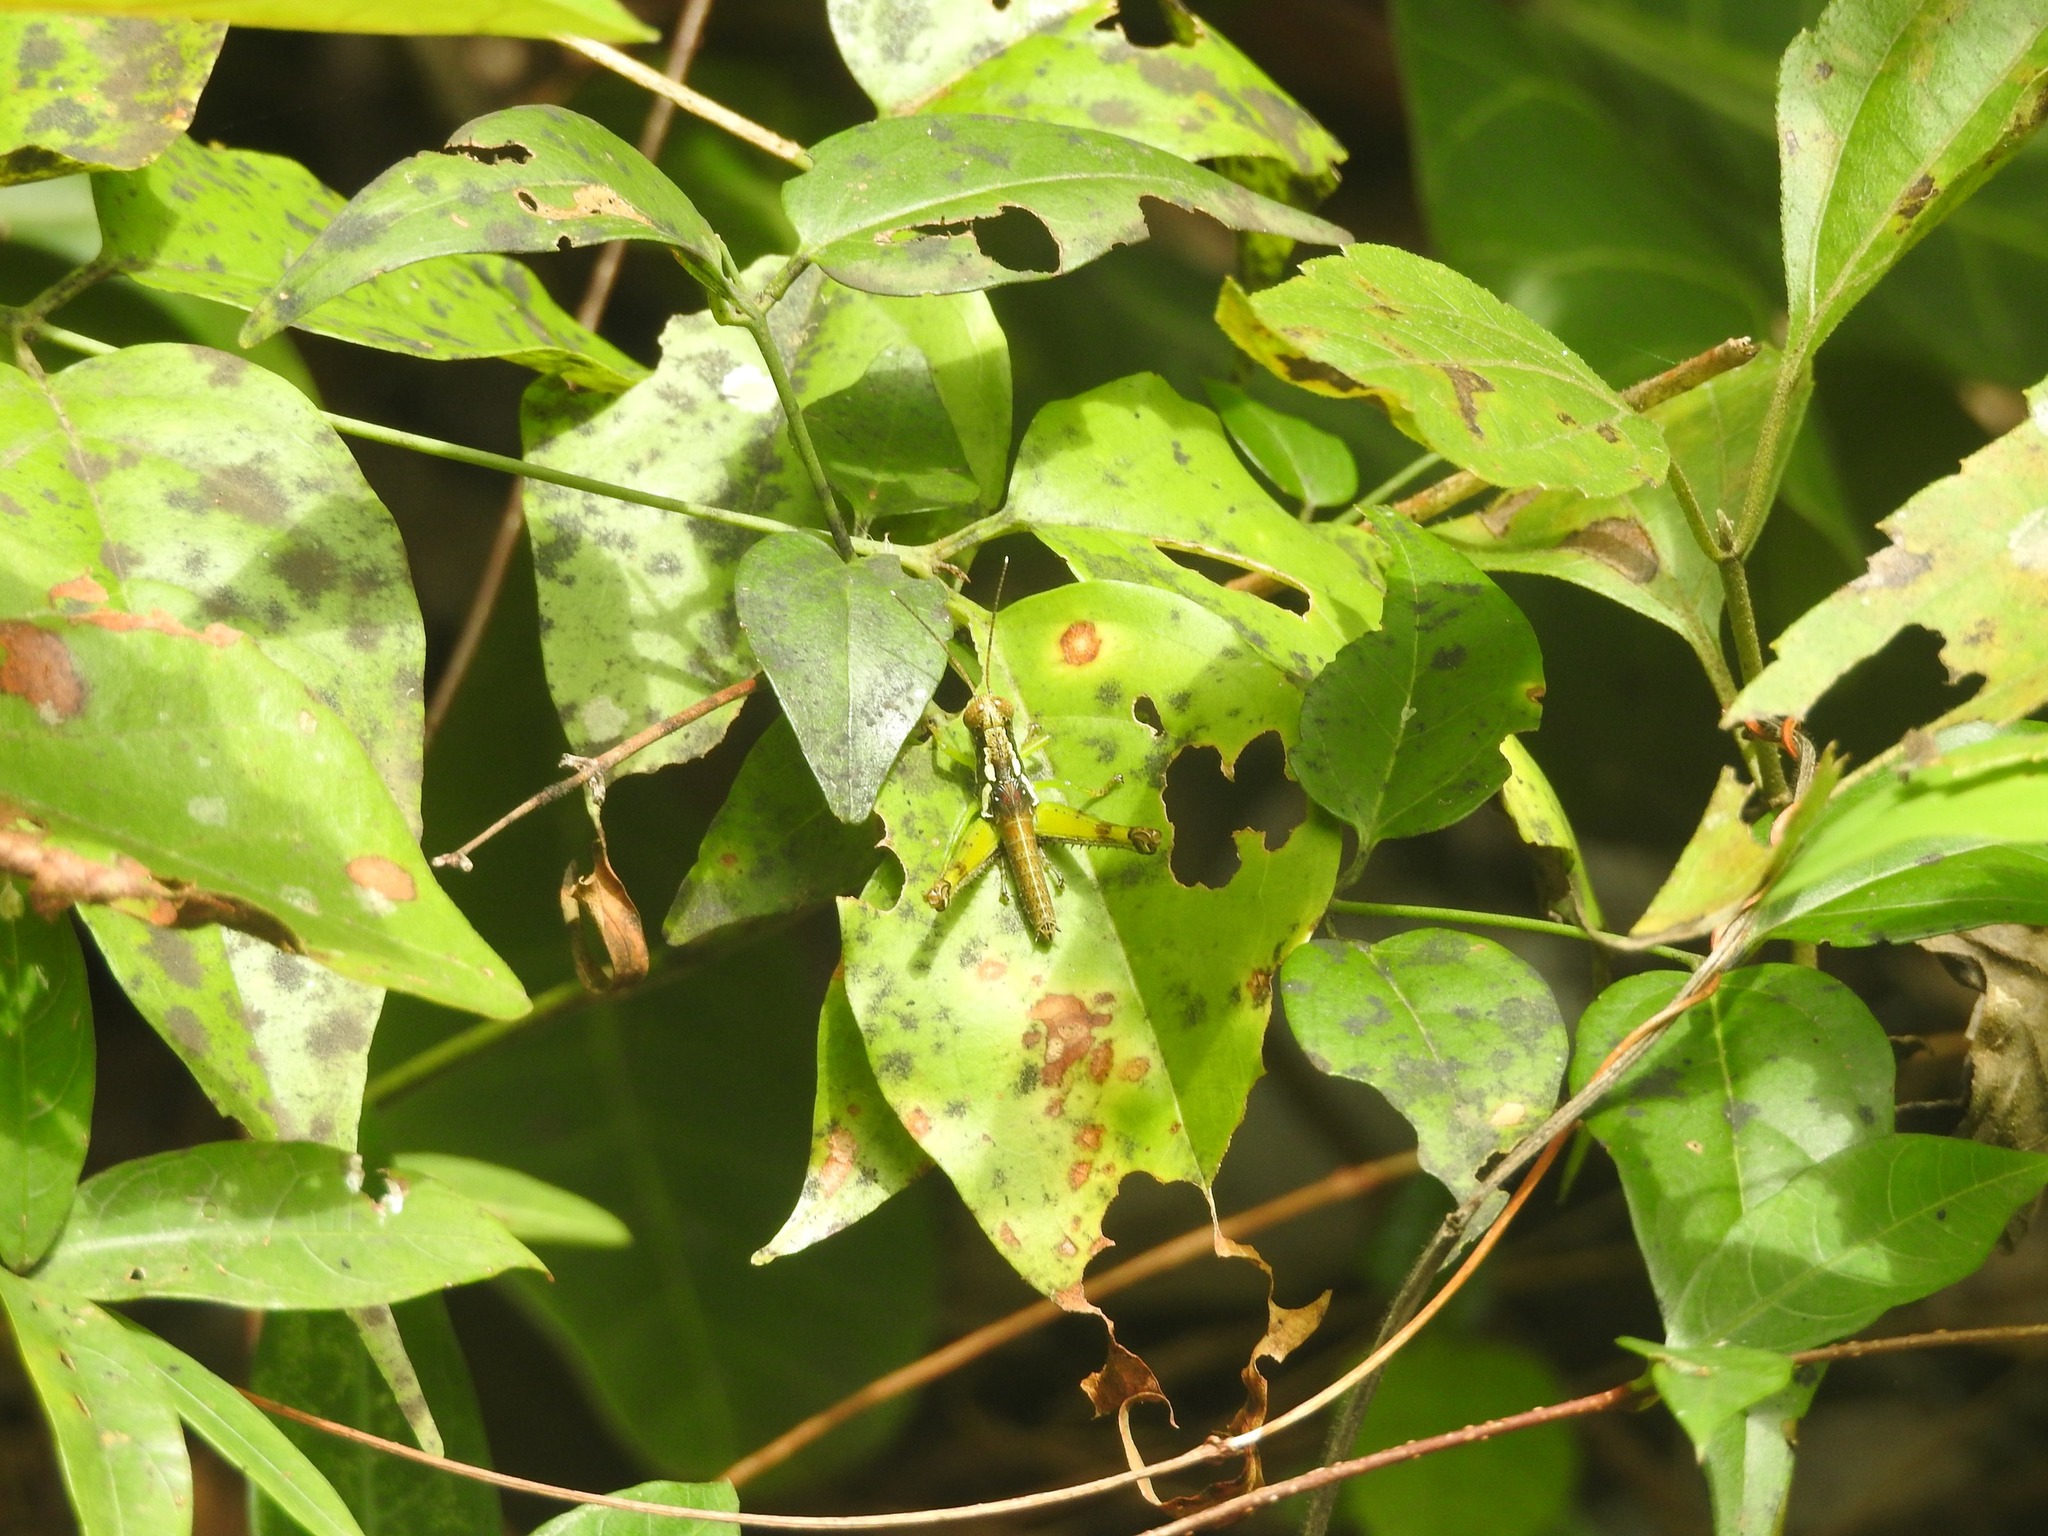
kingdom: Animalia
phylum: Arthropoda
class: Insecta
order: Orthoptera
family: Acrididae
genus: Pirithoicus
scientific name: Pirithoicus ophthalmicus
